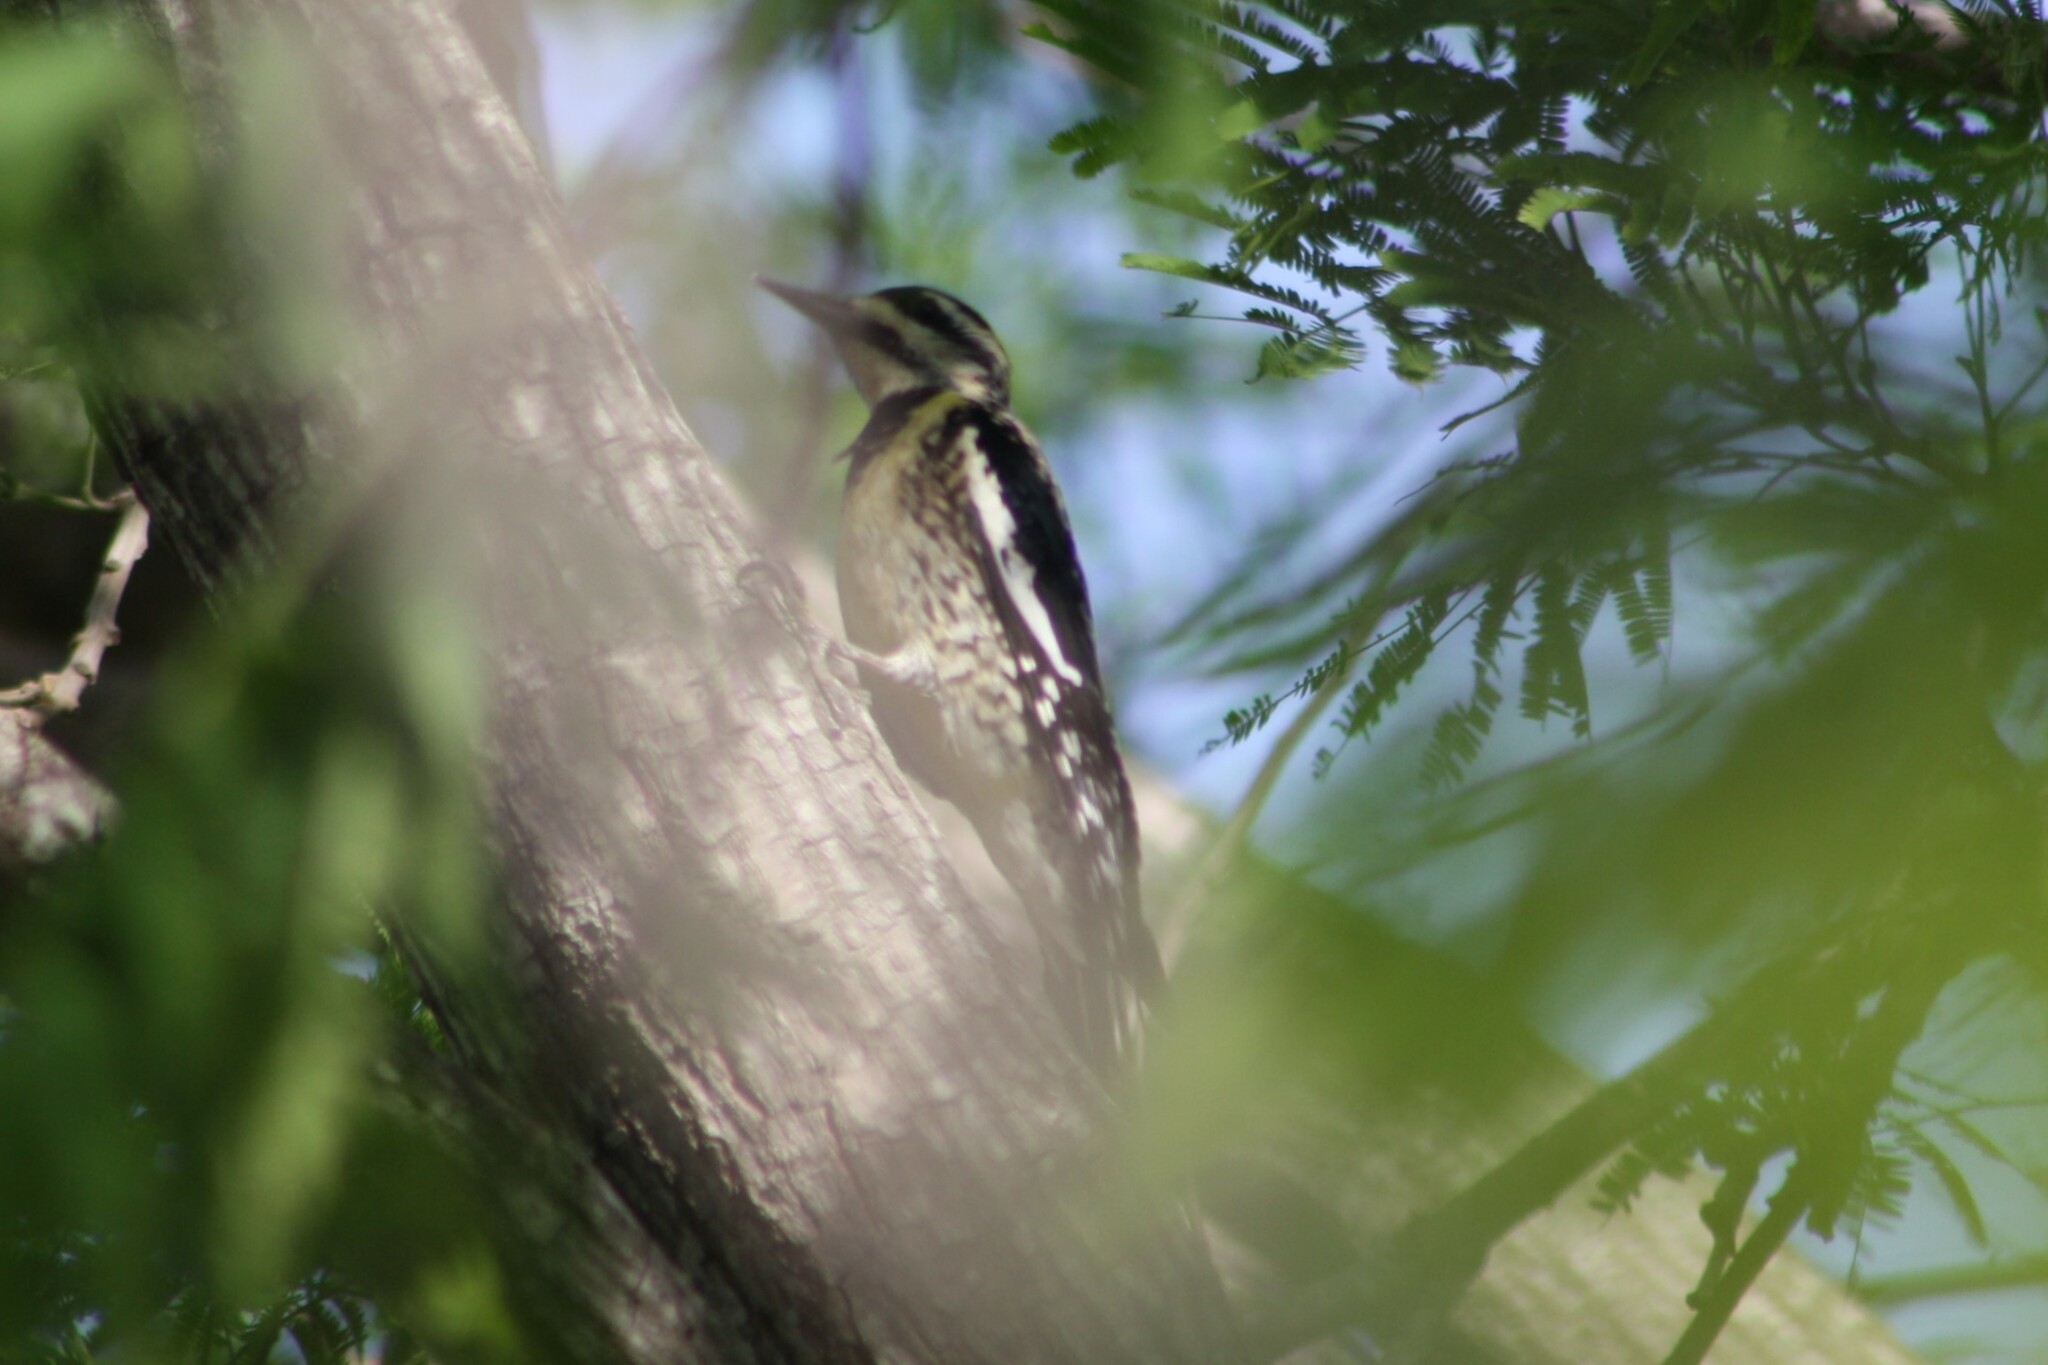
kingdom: Animalia
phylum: Chordata
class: Aves
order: Piciformes
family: Picidae
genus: Sphyrapicus
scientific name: Sphyrapicus varius
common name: Yellow-bellied sapsucker
